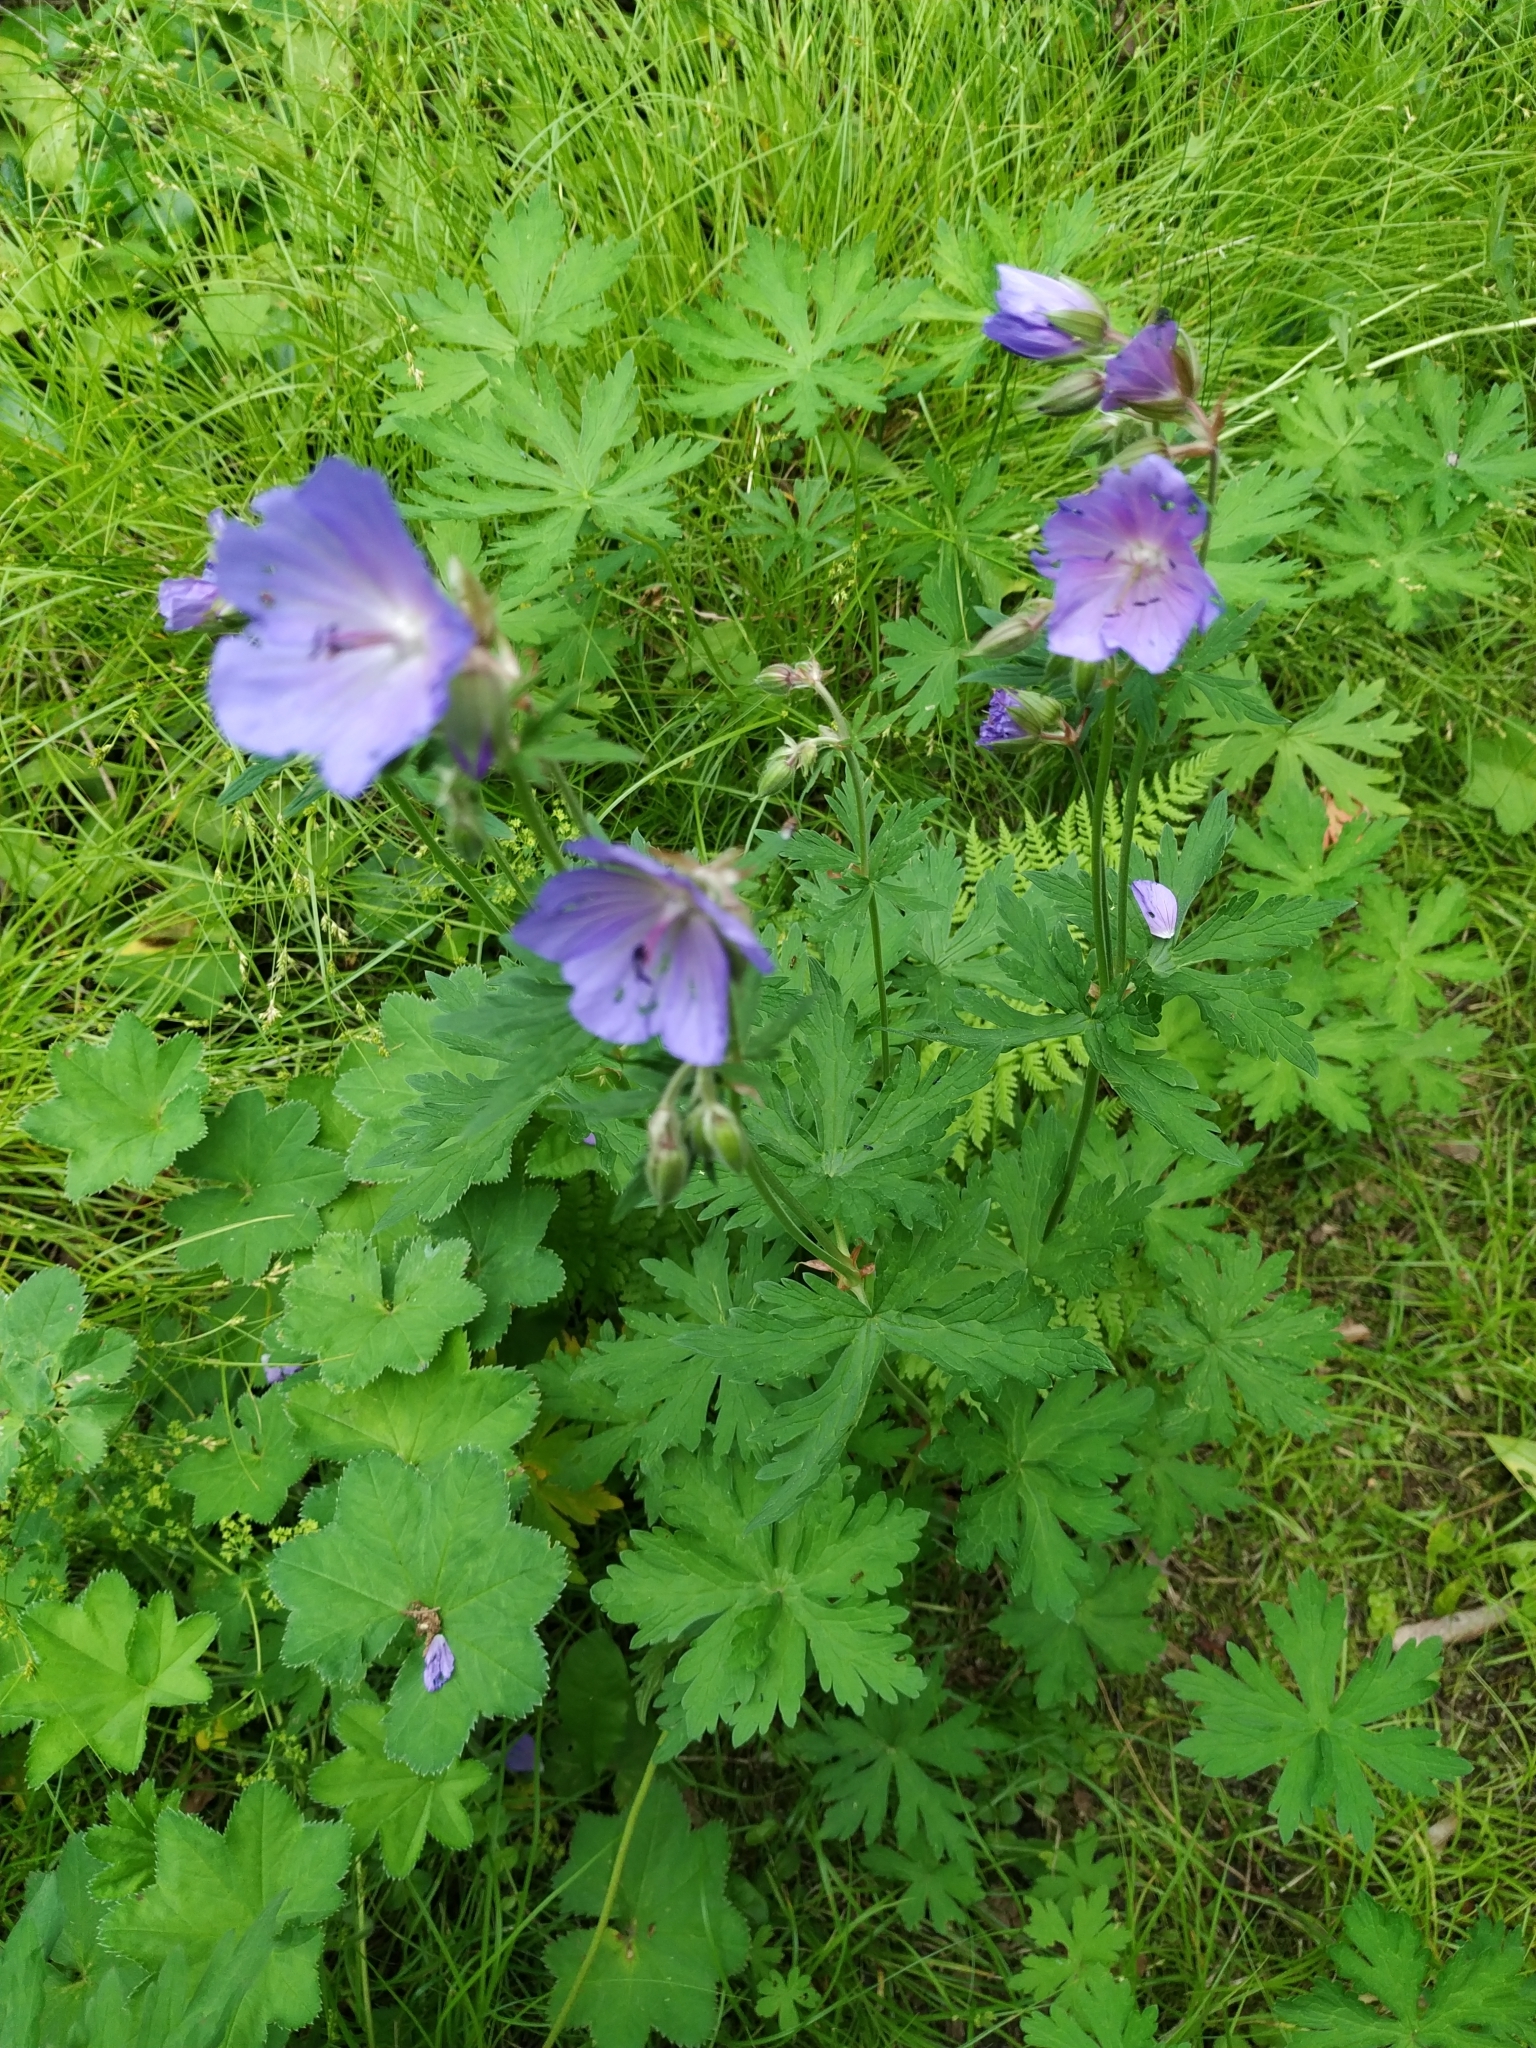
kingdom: Plantae
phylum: Tracheophyta
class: Magnoliopsida
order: Geraniales
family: Geraniaceae
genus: Geranium
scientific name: Geranium pratense
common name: Meadow crane's-bill
